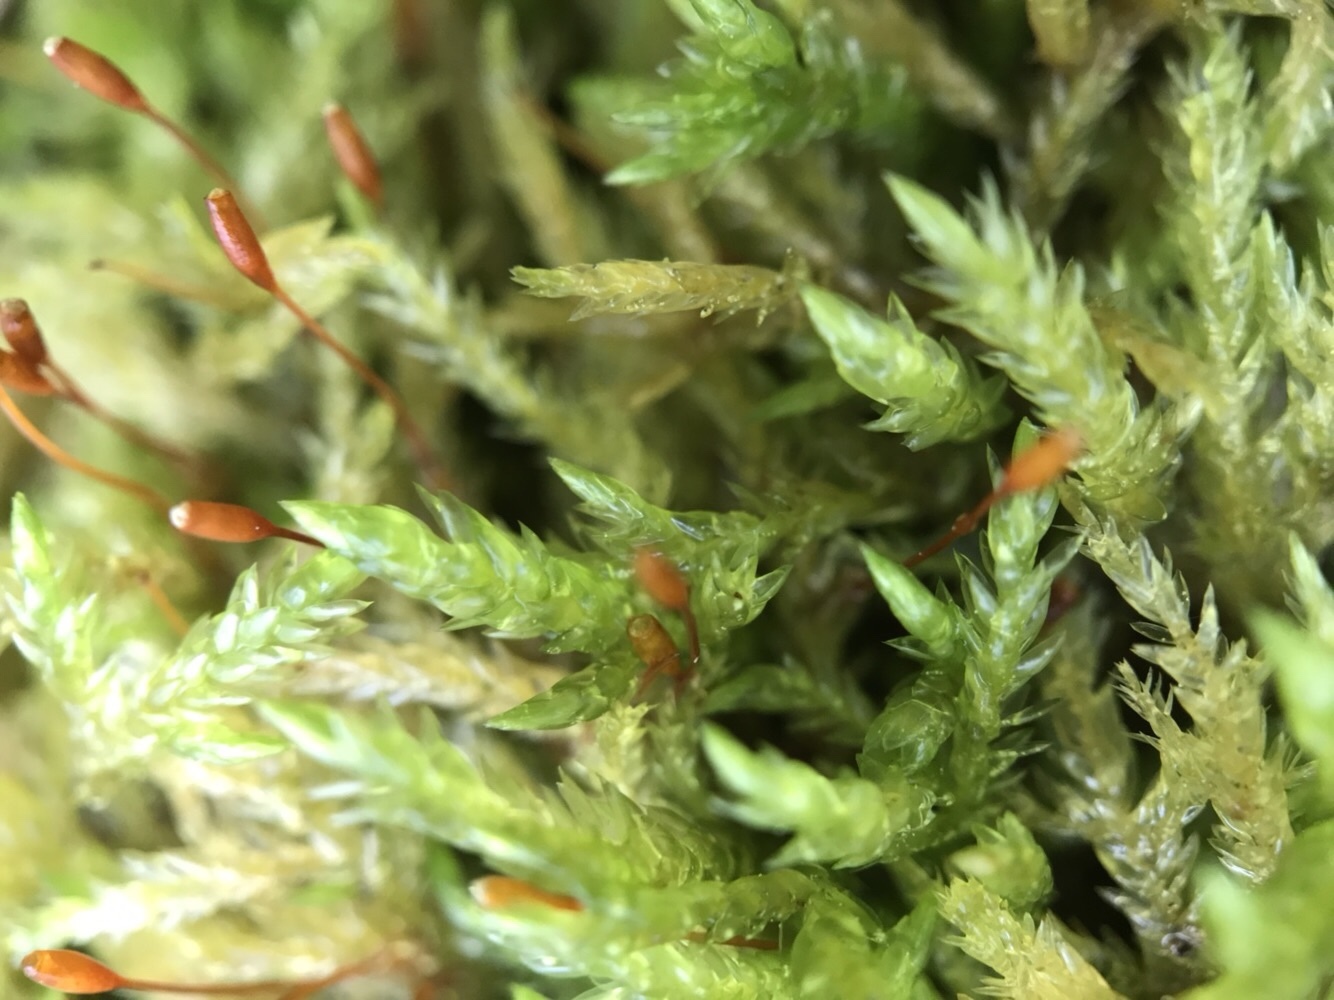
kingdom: Plantae
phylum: Bryophyta
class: Bryopsida
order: Hypnales
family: Lembophyllaceae
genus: Isothecium
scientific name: Isothecium alopecuroides
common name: Larger mouse-tail moss
